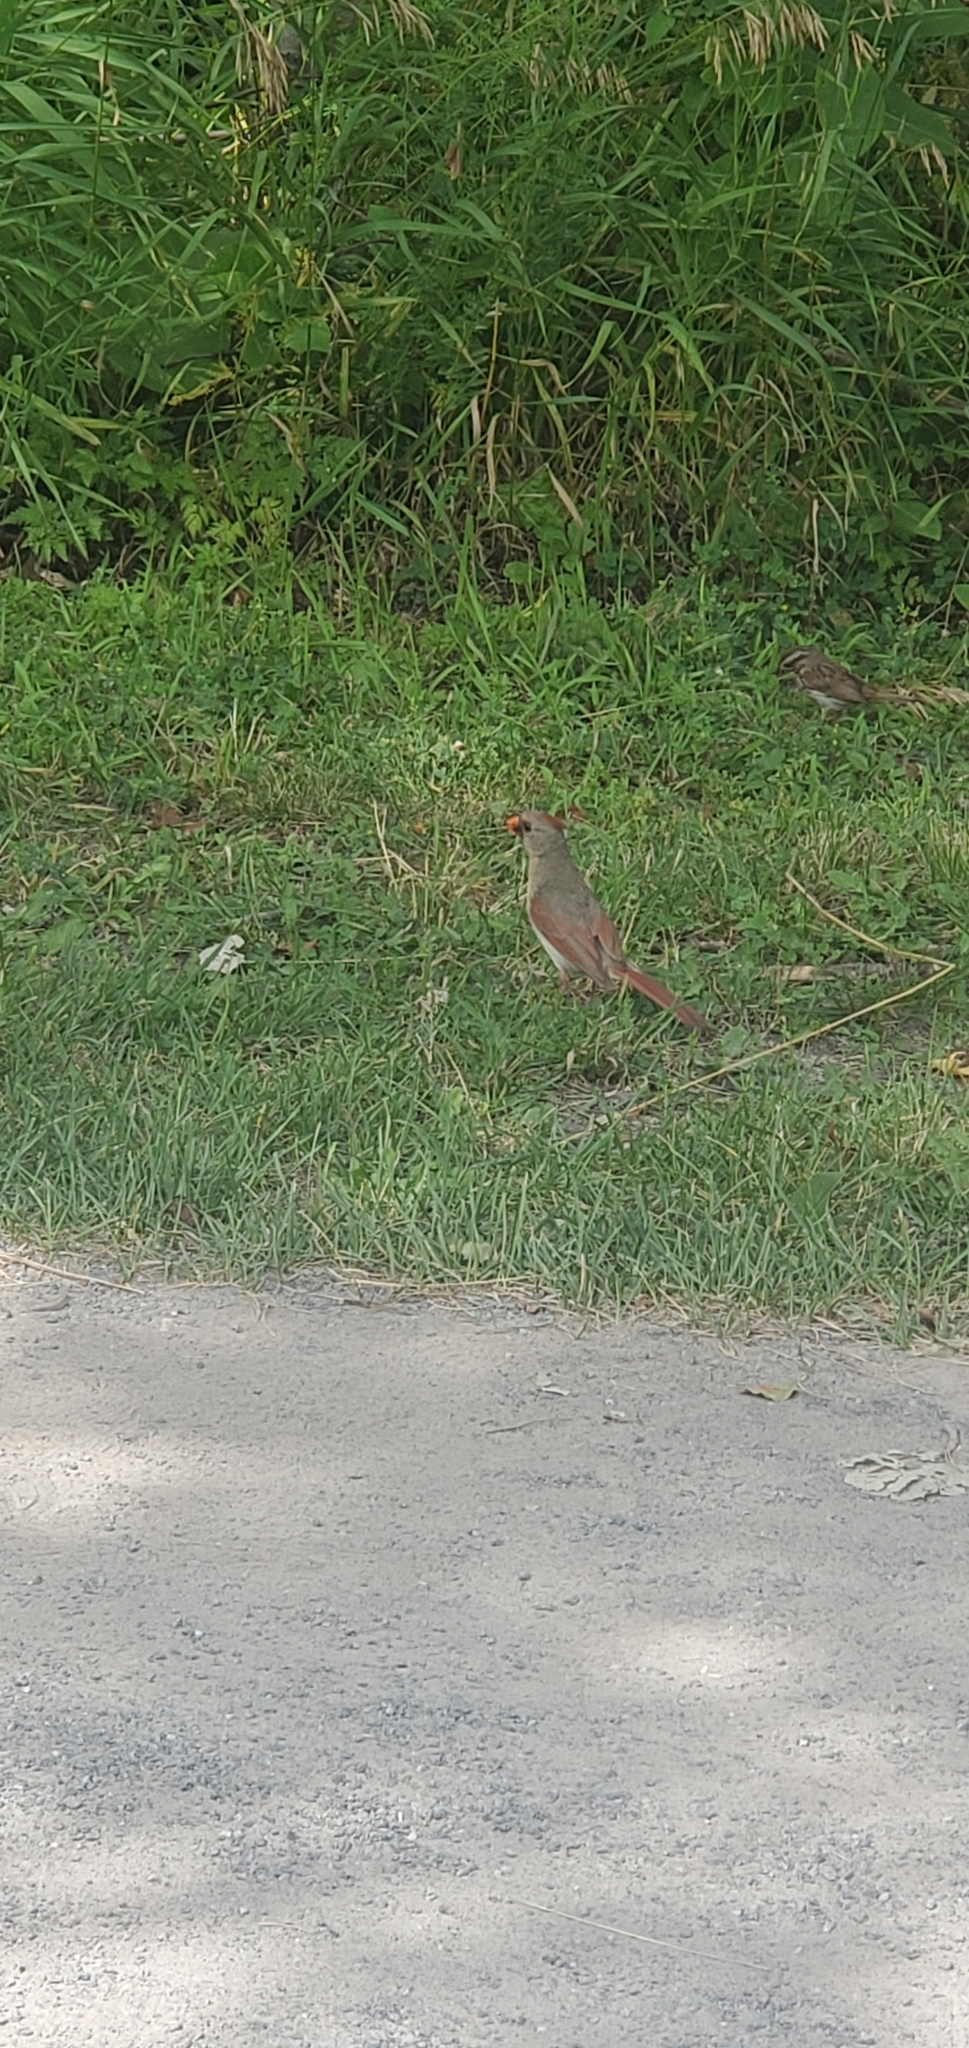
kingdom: Animalia
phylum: Chordata
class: Aves
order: Passeriformes
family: Cardinalidae
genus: Cardinalis
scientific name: Cardinalis cardinalis
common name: Northern cardinal
